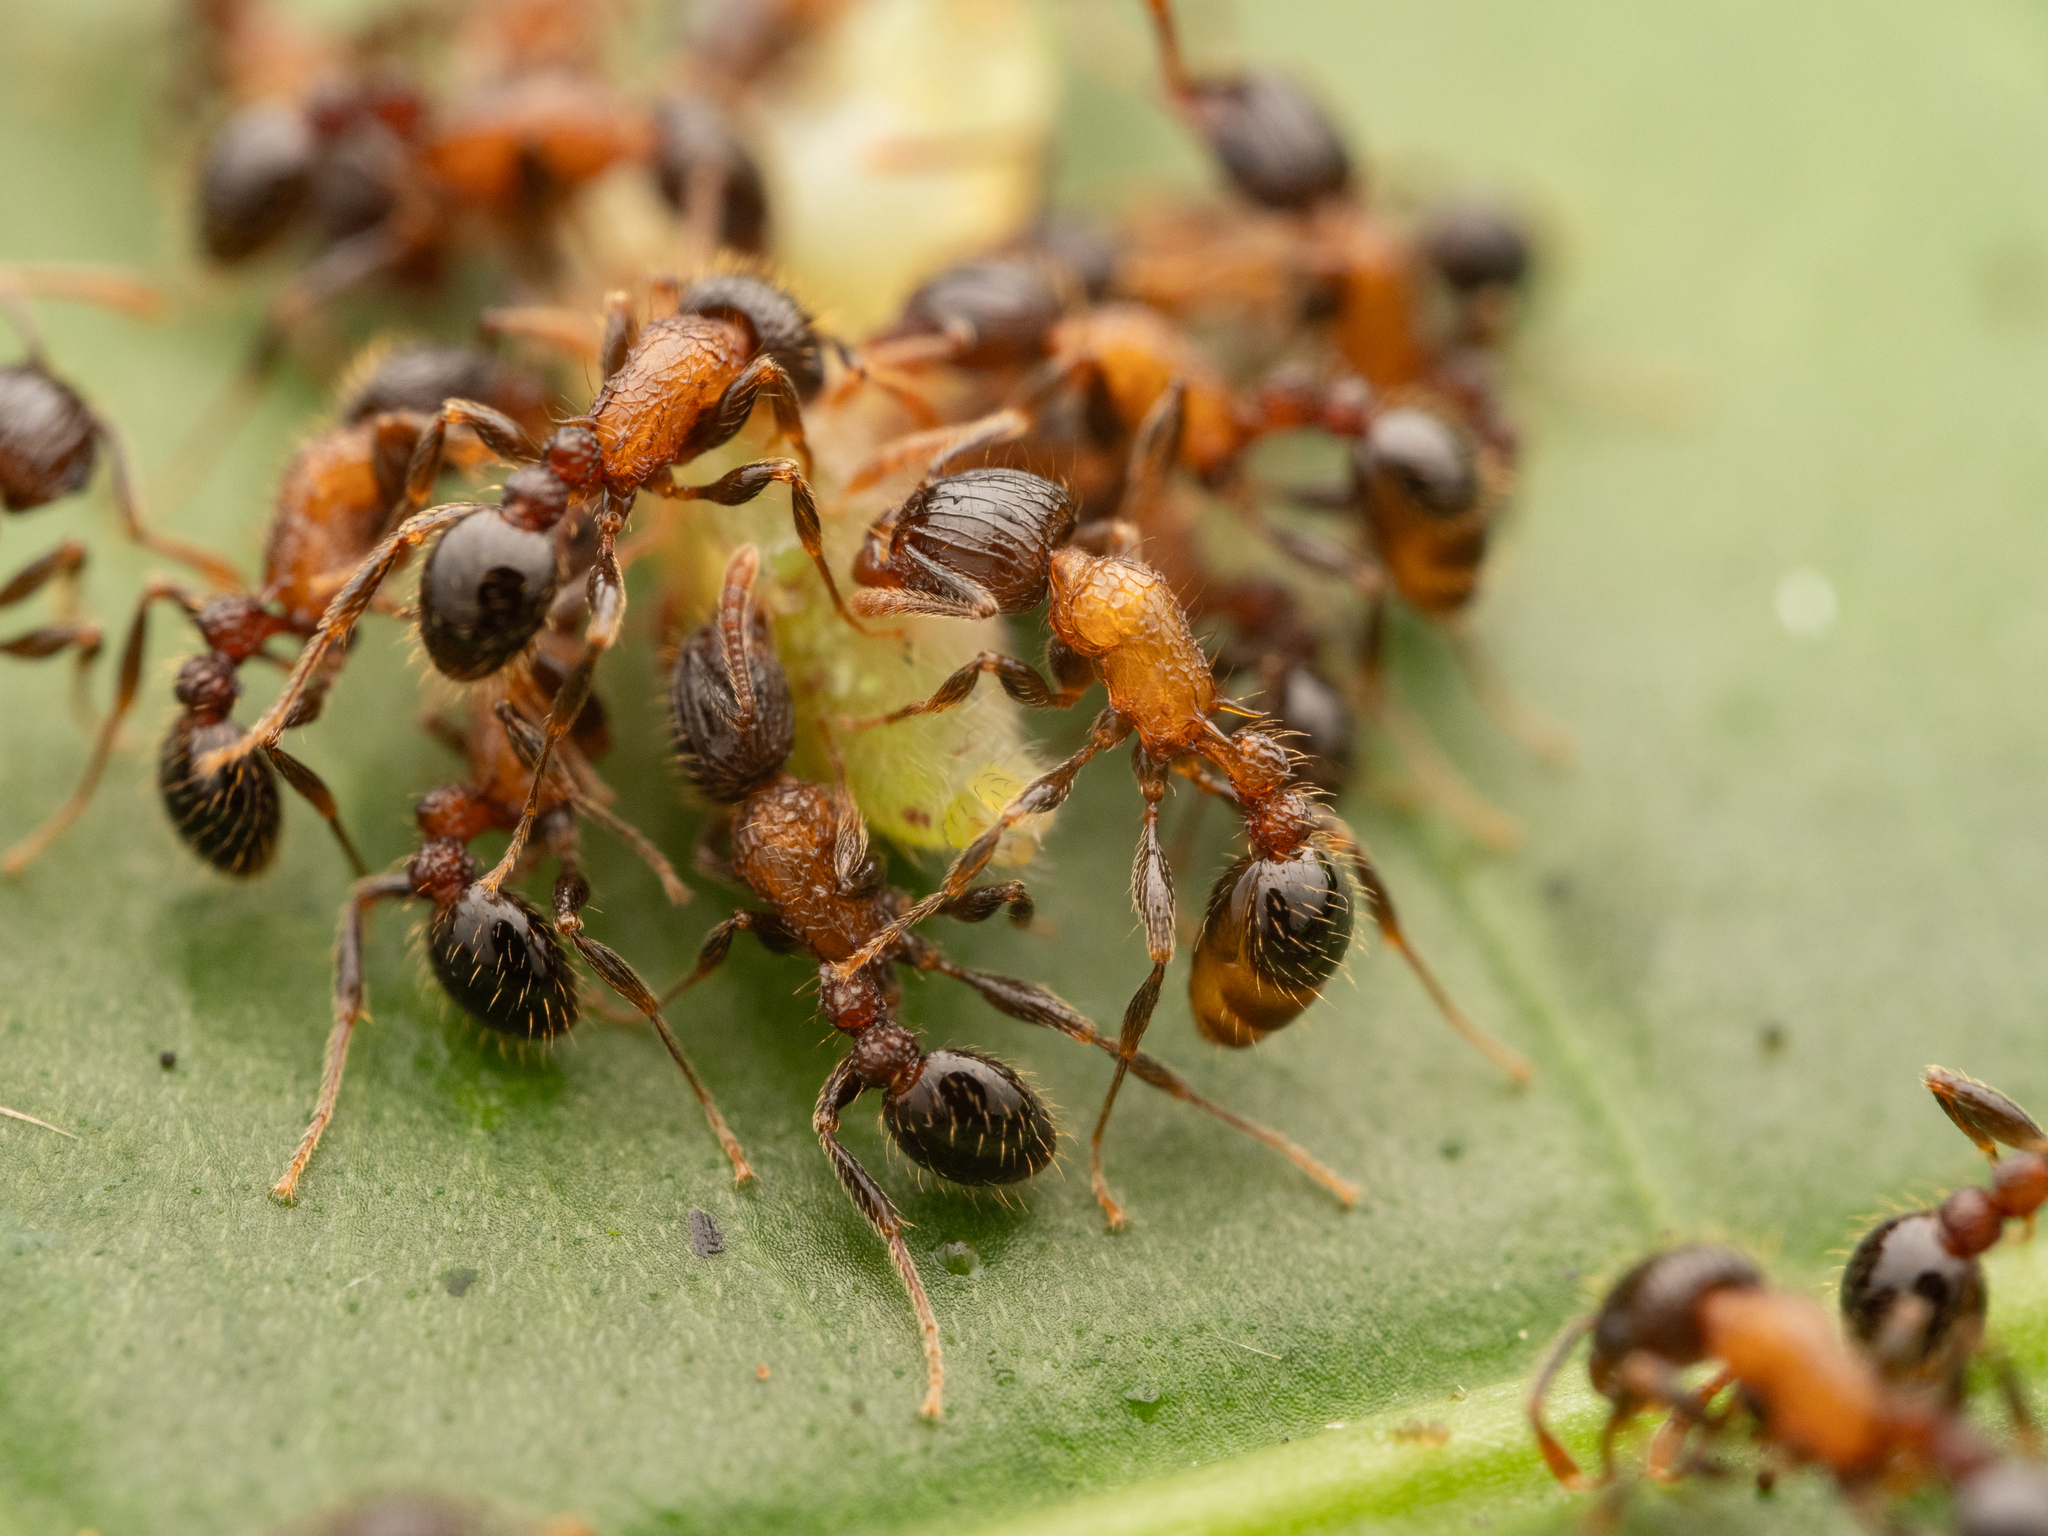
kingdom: Animalia
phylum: Arthropoda
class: Insecta
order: Hymenoptera
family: Formicidae
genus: Tetramorium
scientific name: Tetramorium tricarinatum
